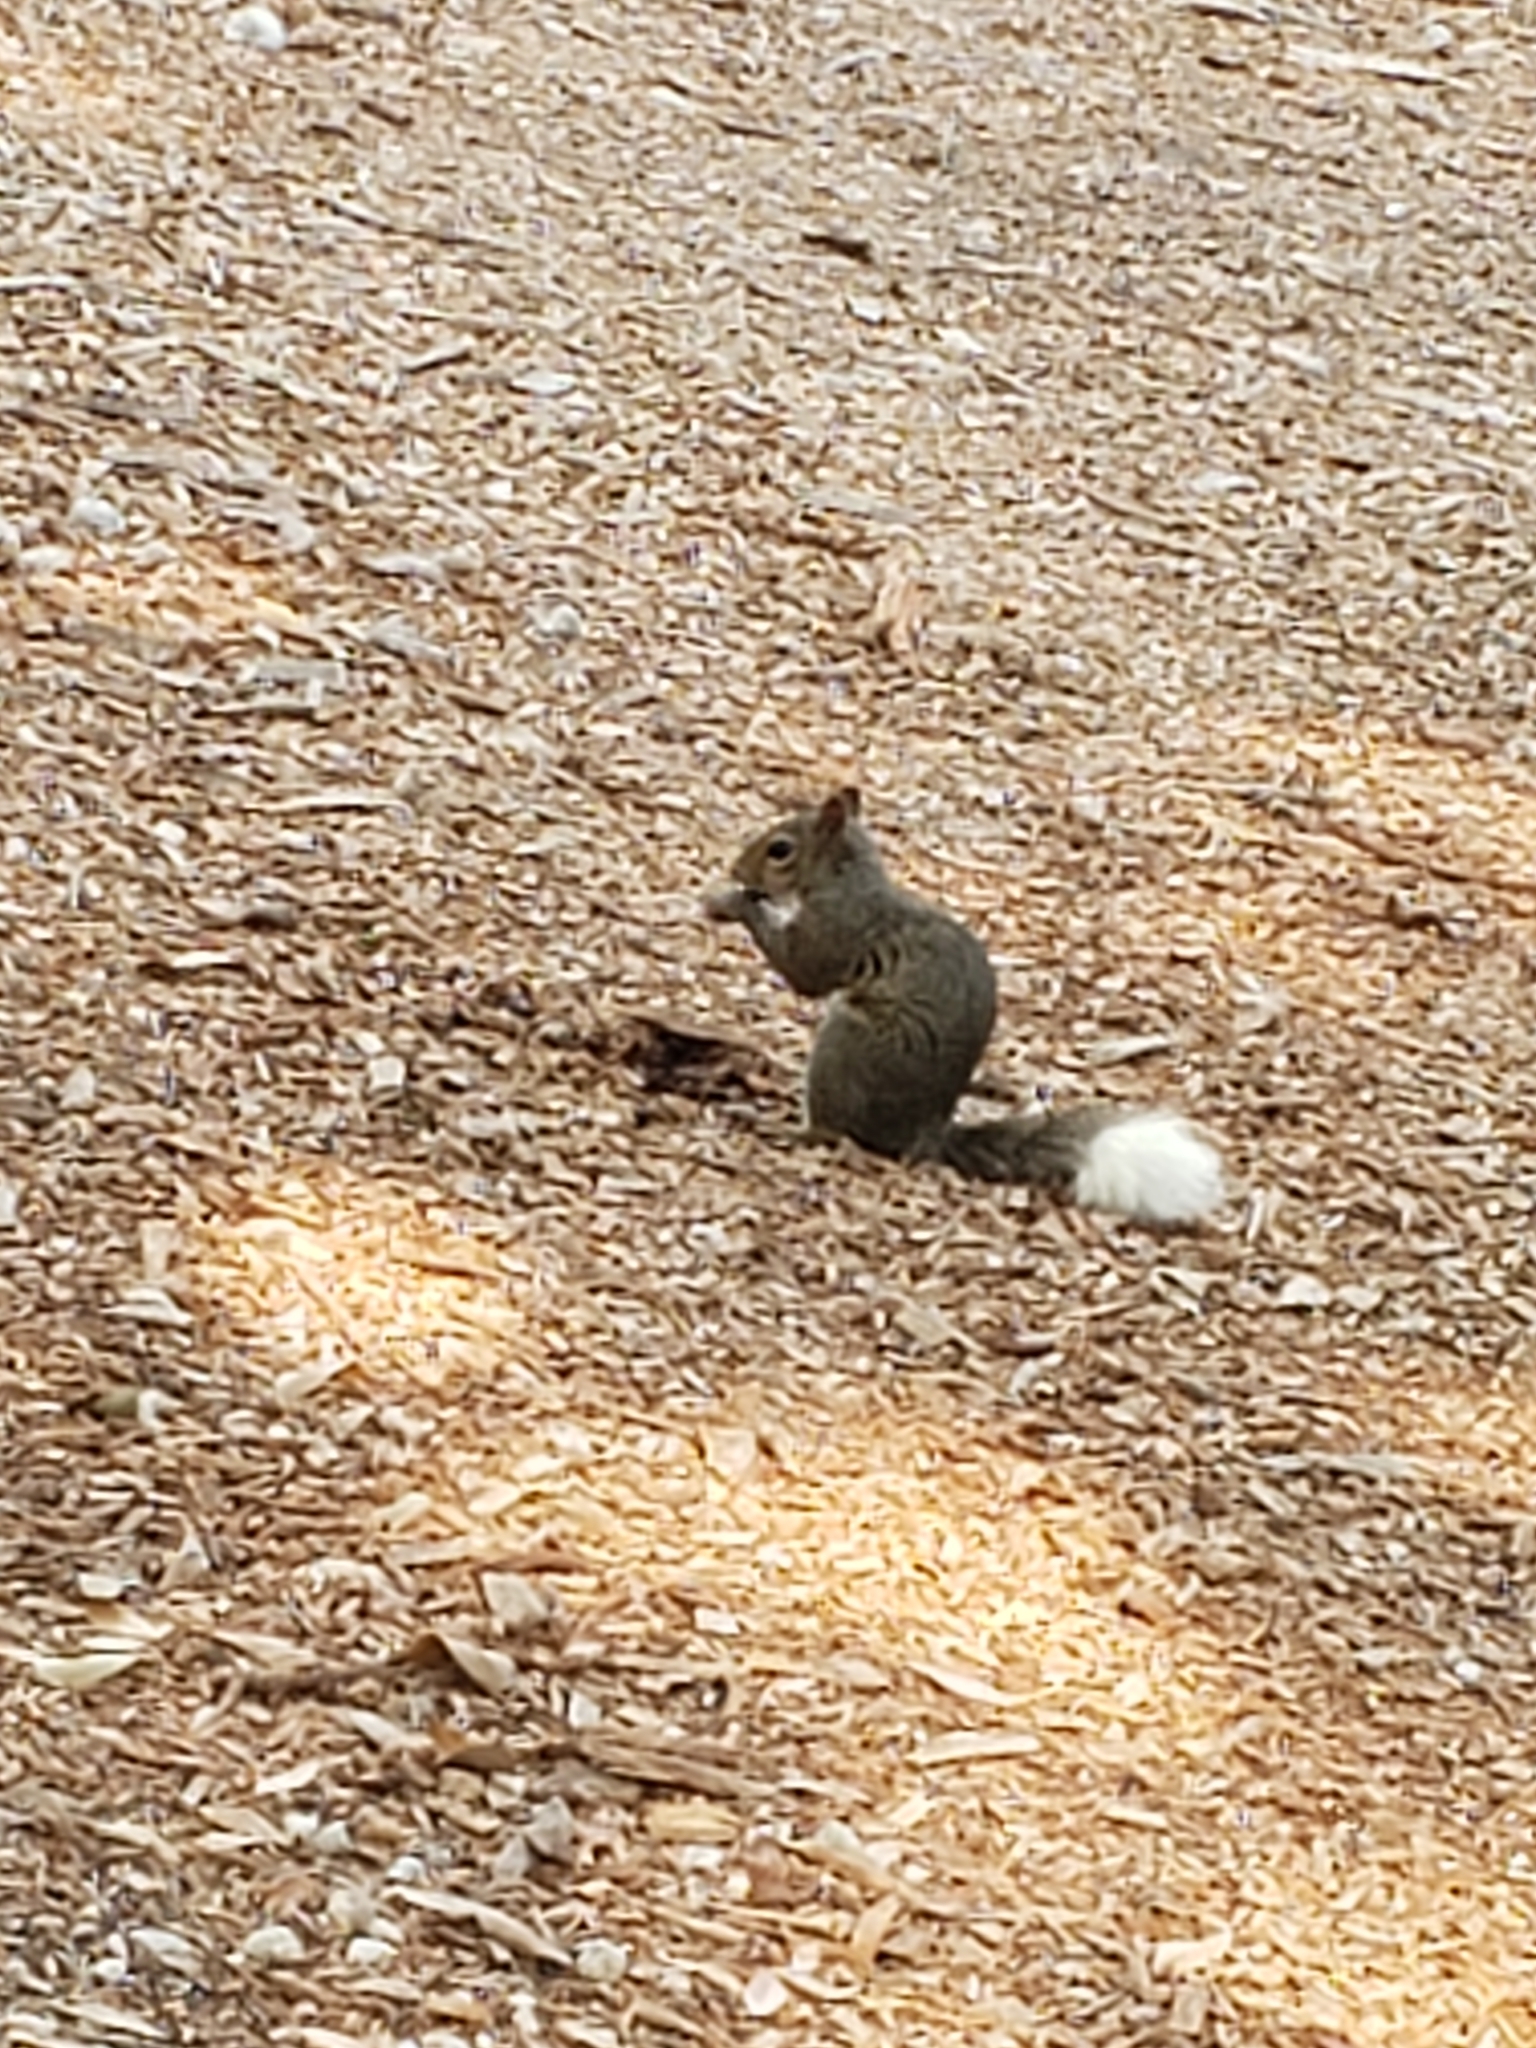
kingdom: Animalia
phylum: Chordata
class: Mammalia
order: Rodentia
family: Sciuridae
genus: Sciurus
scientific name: Sciurus carolinensis
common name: Eastern gray squirrel
